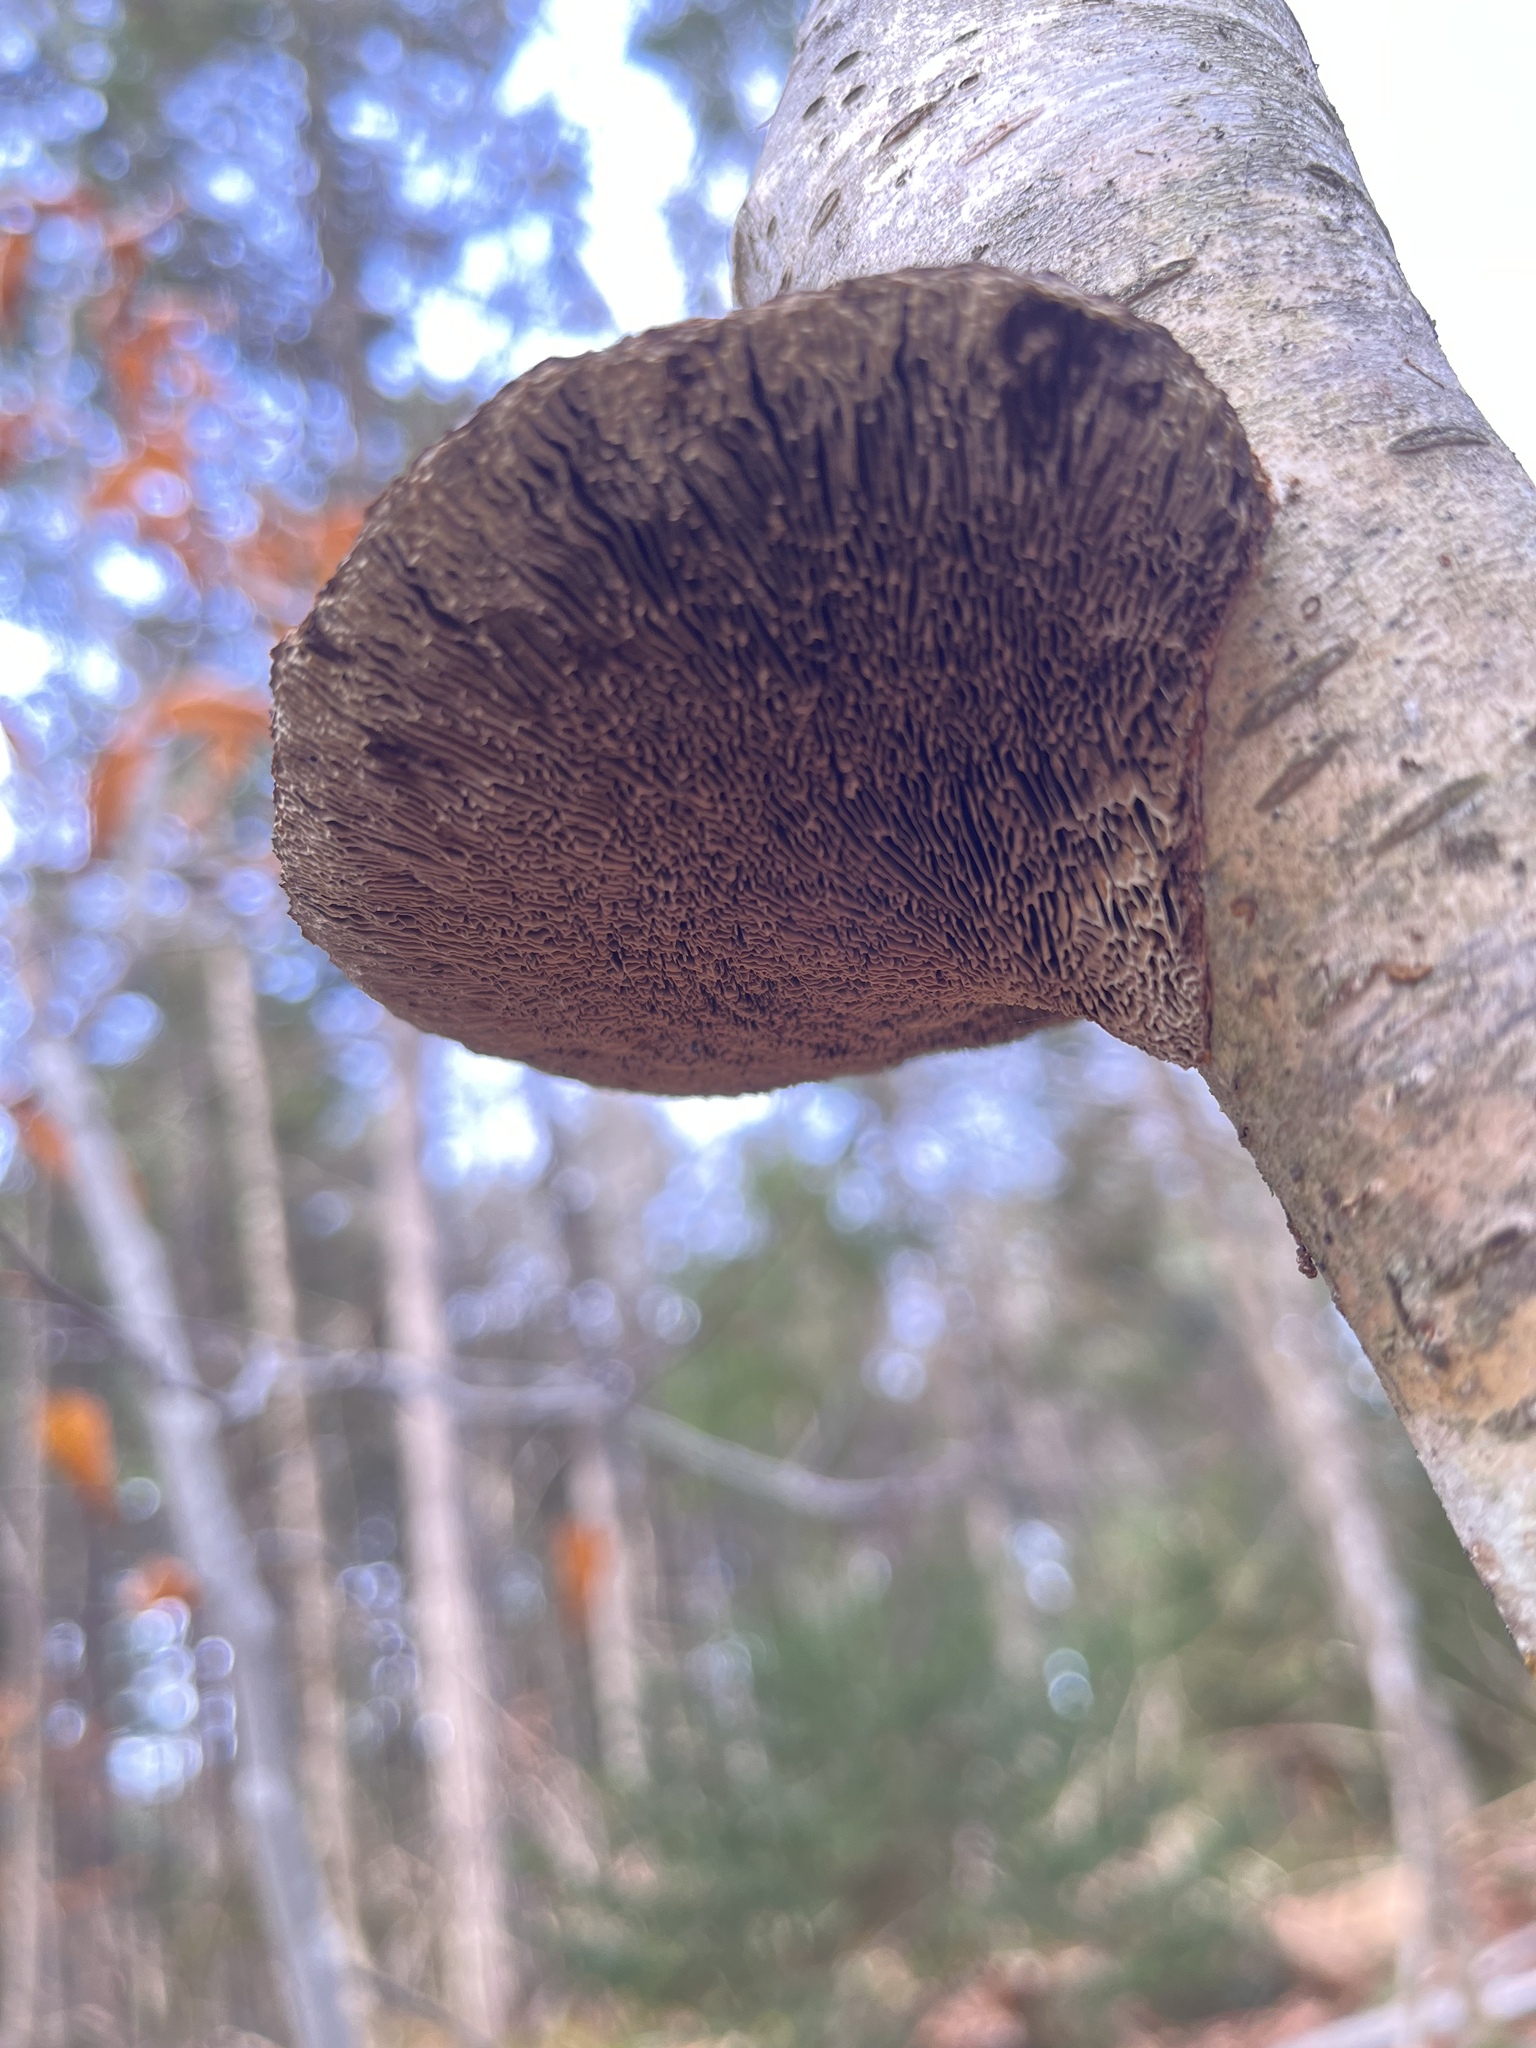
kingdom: Fungi
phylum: Basidiomycota
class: Agaricomycetes
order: Polyporales
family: Polyporaceae
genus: Daedaleopsis
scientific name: Daedaleopsis confragosa
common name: Blushing bracket
